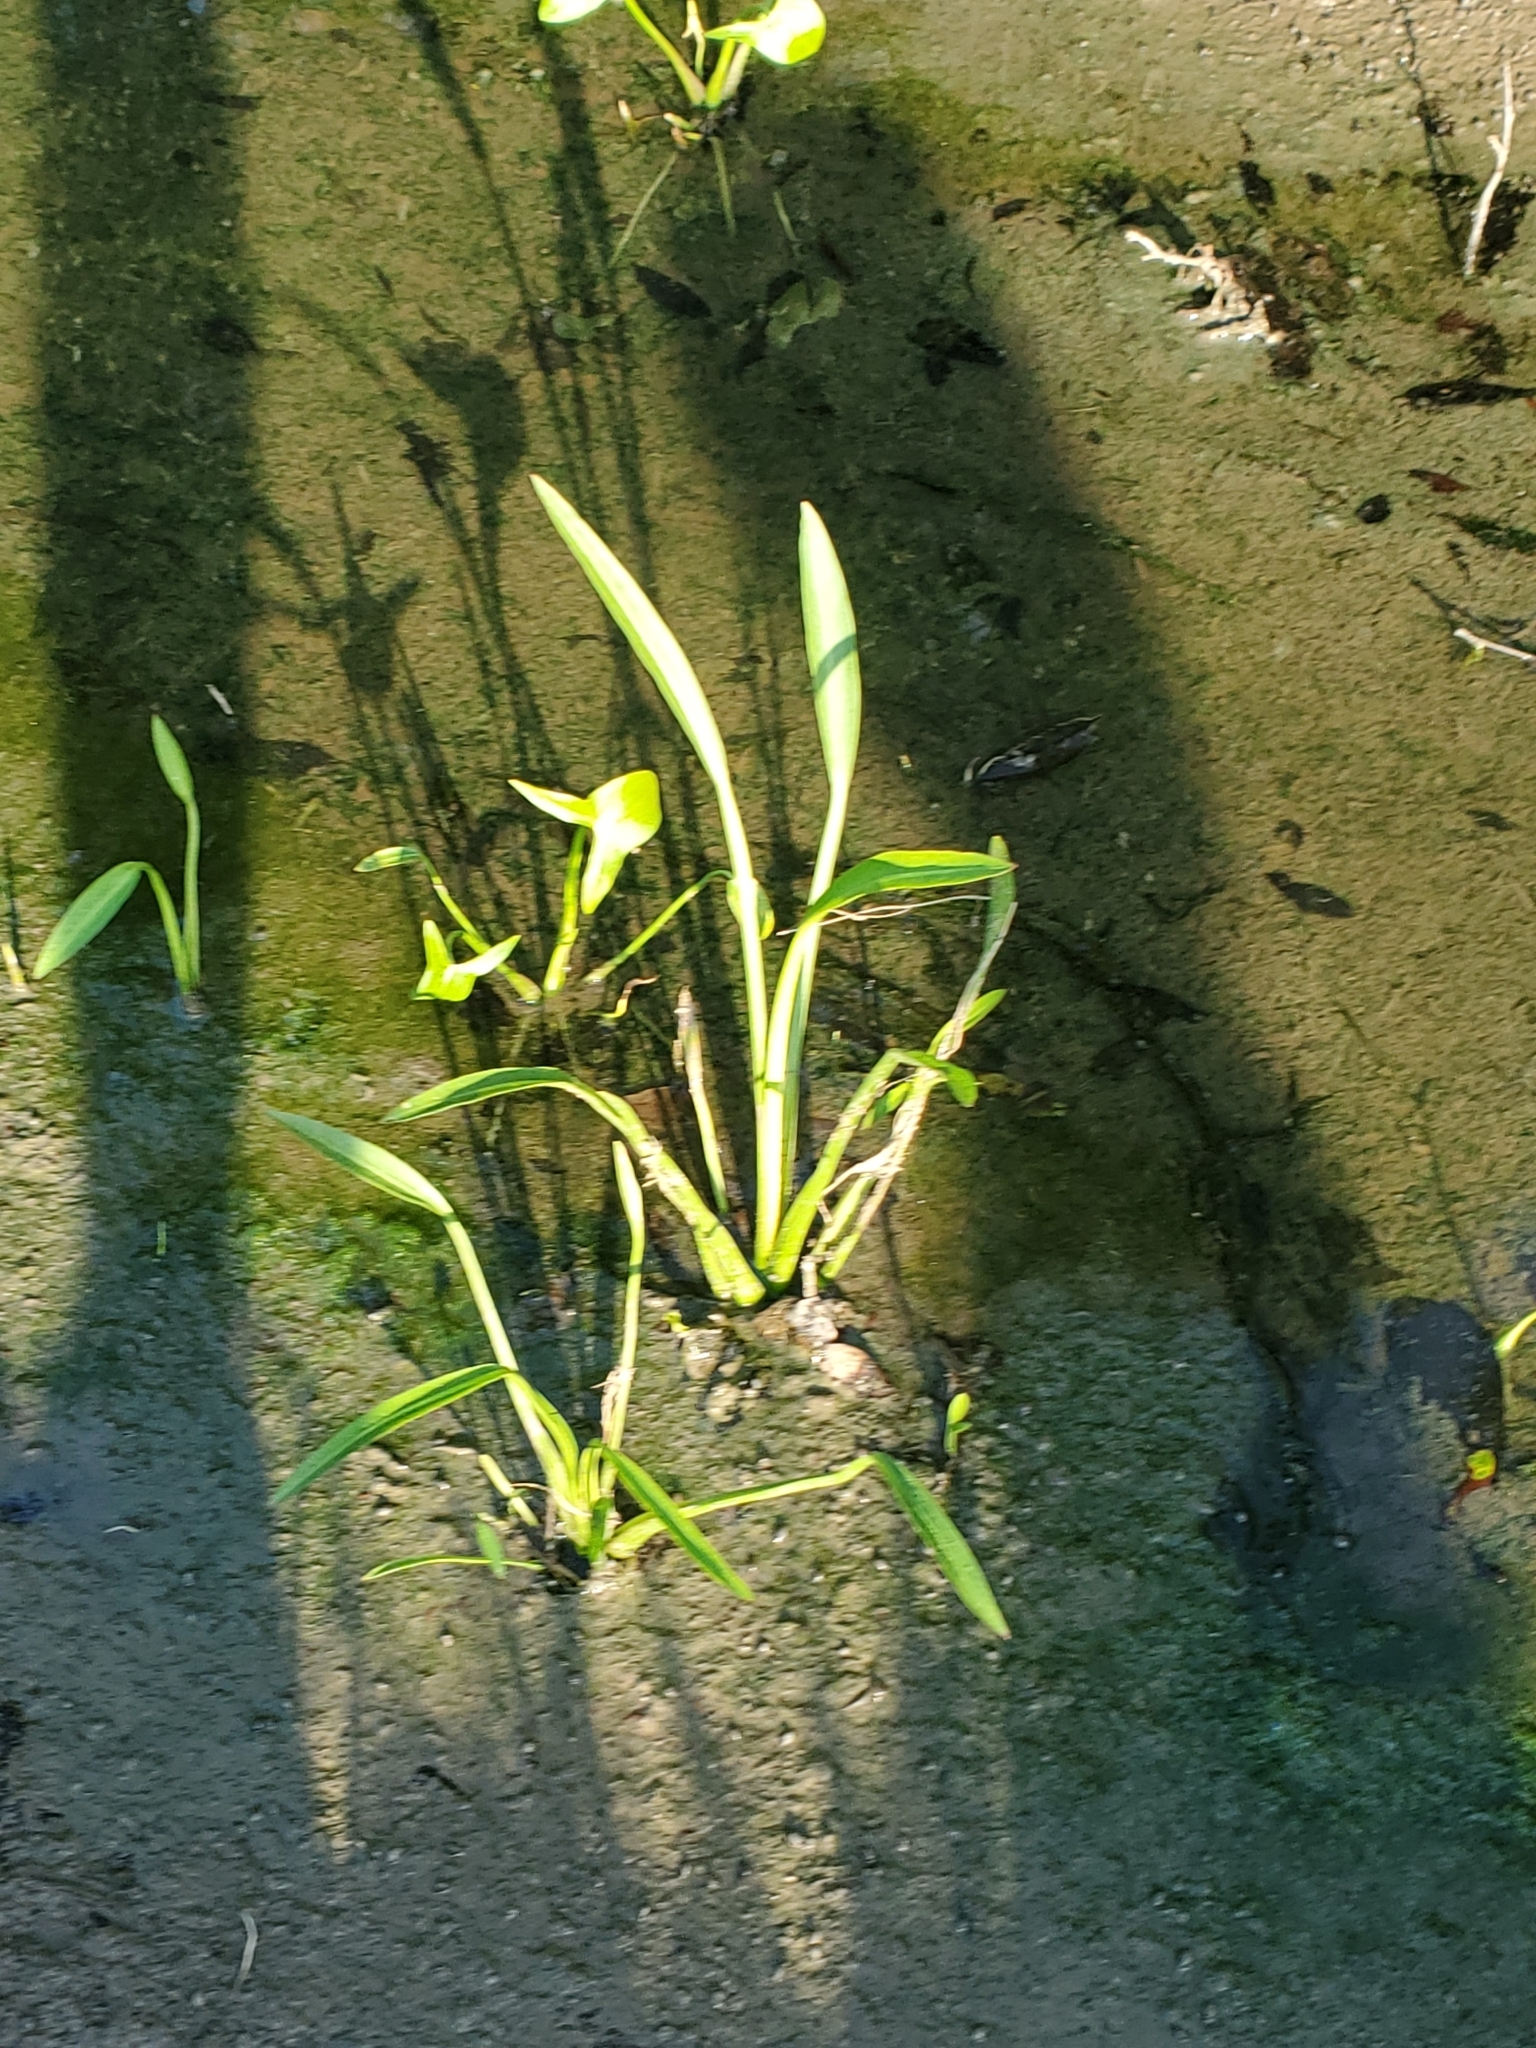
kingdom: Plantae
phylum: Tracheophyta
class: Liliopsida
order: Alismatales
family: Alismataceae
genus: Sagittaria
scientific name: Sagittaria platyphylla
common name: Broad-leaf arrowhead
